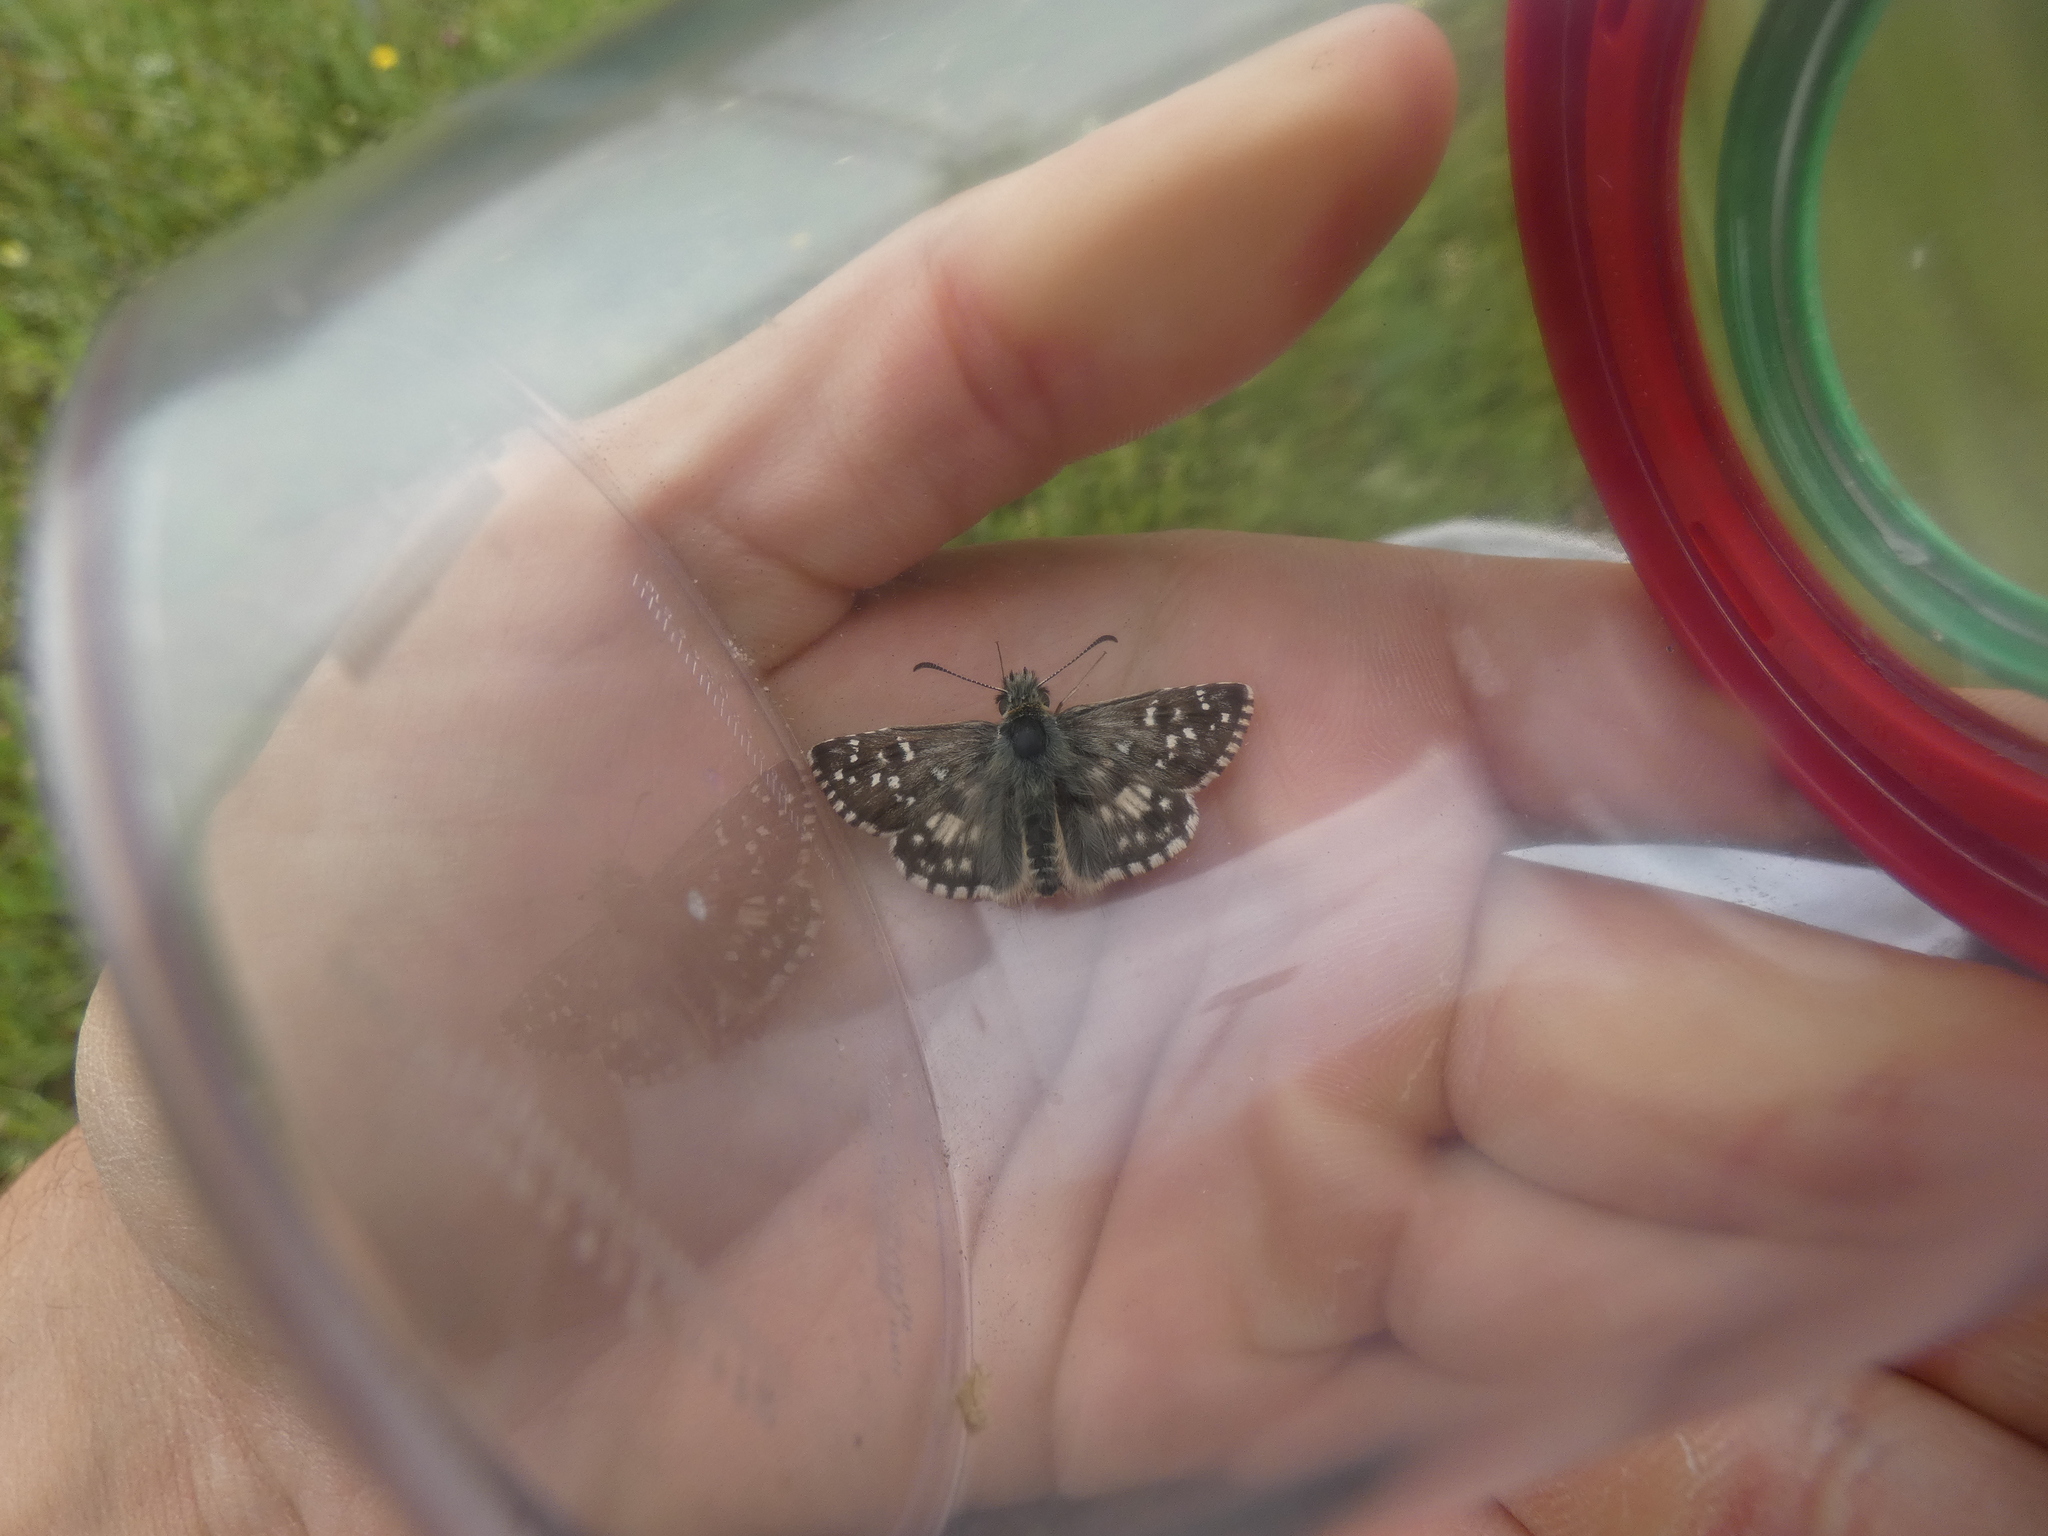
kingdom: Animalia
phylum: Arthropoda
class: Insecta
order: Lepidoptera
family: Hesperiidae
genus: Pyrgus
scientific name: Pyrgus armoricanus
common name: Oberthür's grizzled skipper
